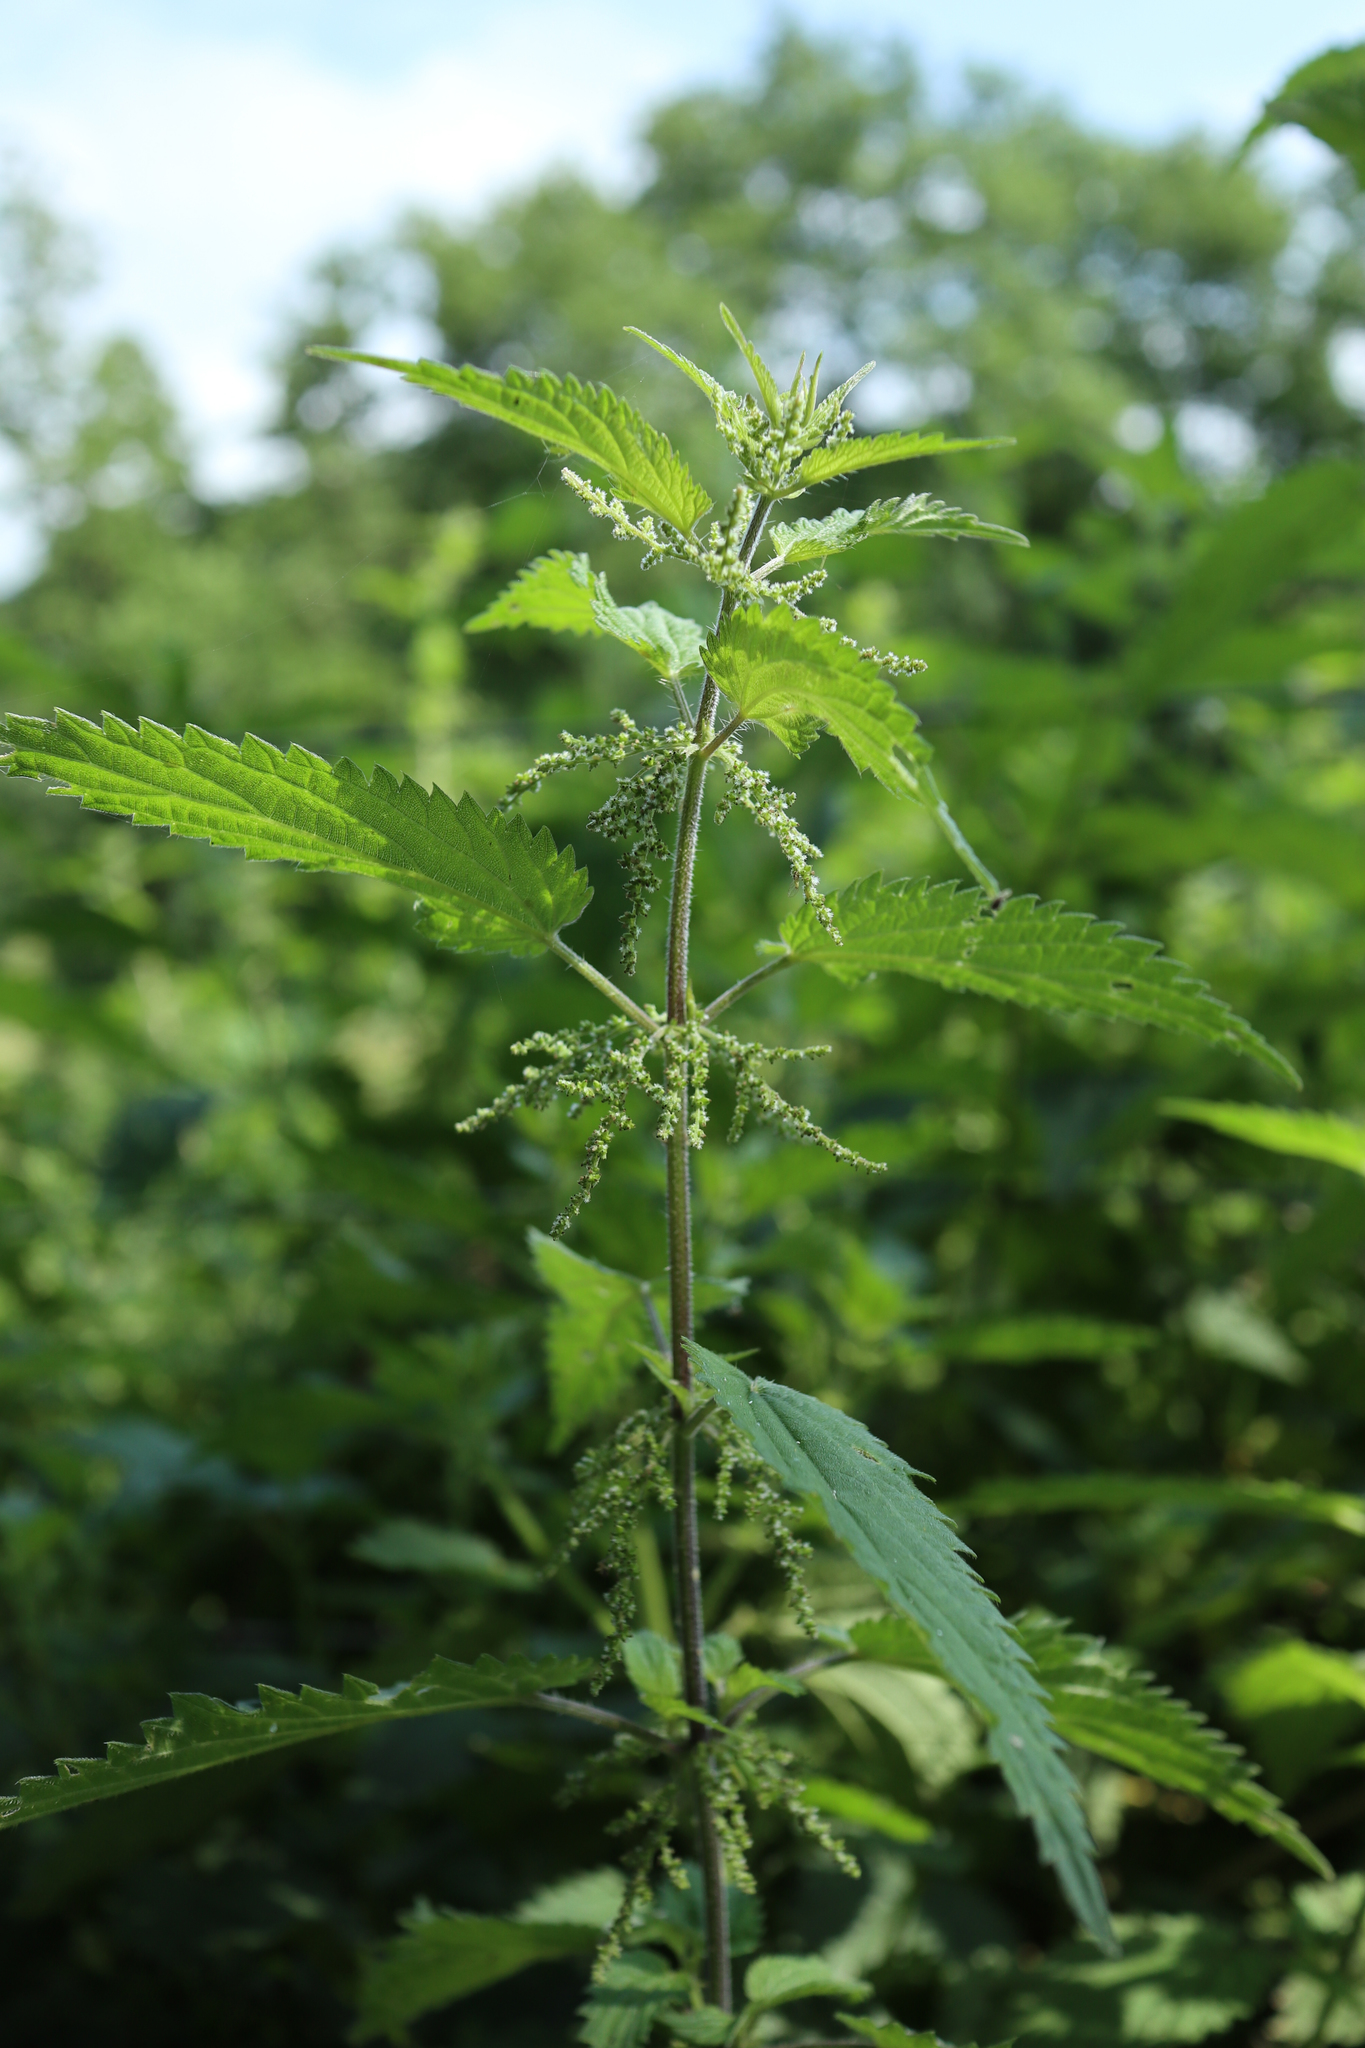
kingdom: Plantae
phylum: Tracheophyta
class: Magnoliopsida
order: Rosales
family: Urticaceae
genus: Urtica
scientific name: Urtica dioica
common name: Common nettle
